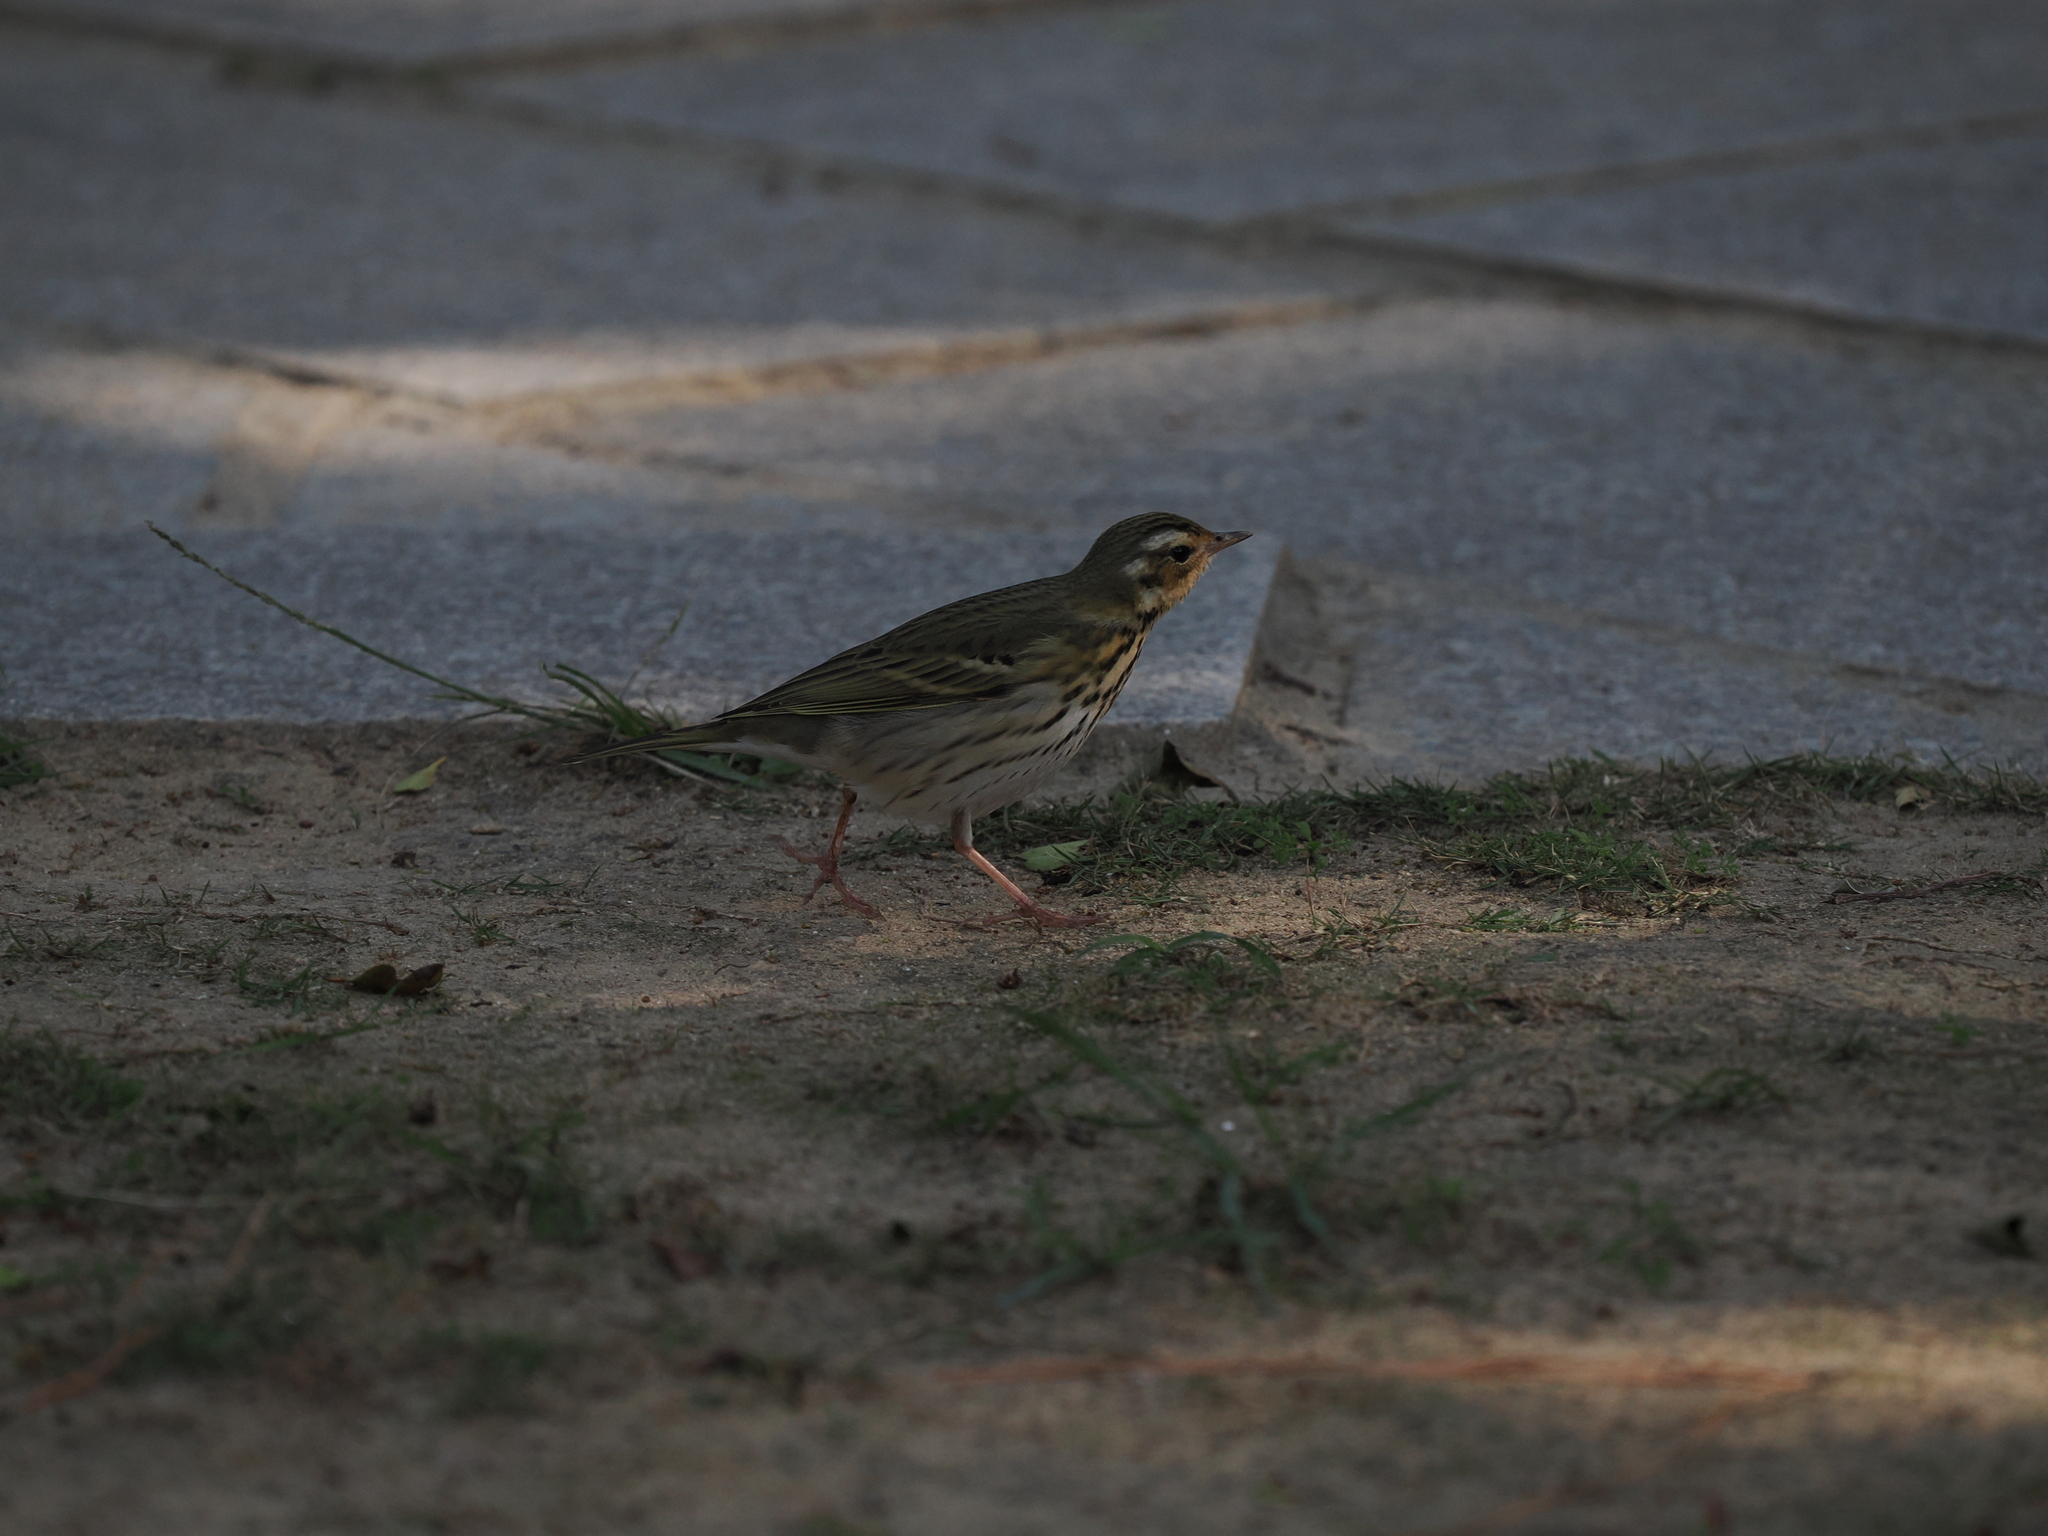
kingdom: Animalia
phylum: Chordata
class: Aves
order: Passeriformes
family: Motacillidae
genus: Anthus
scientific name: Anthus hodgsoni
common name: Olive-backed pipit
